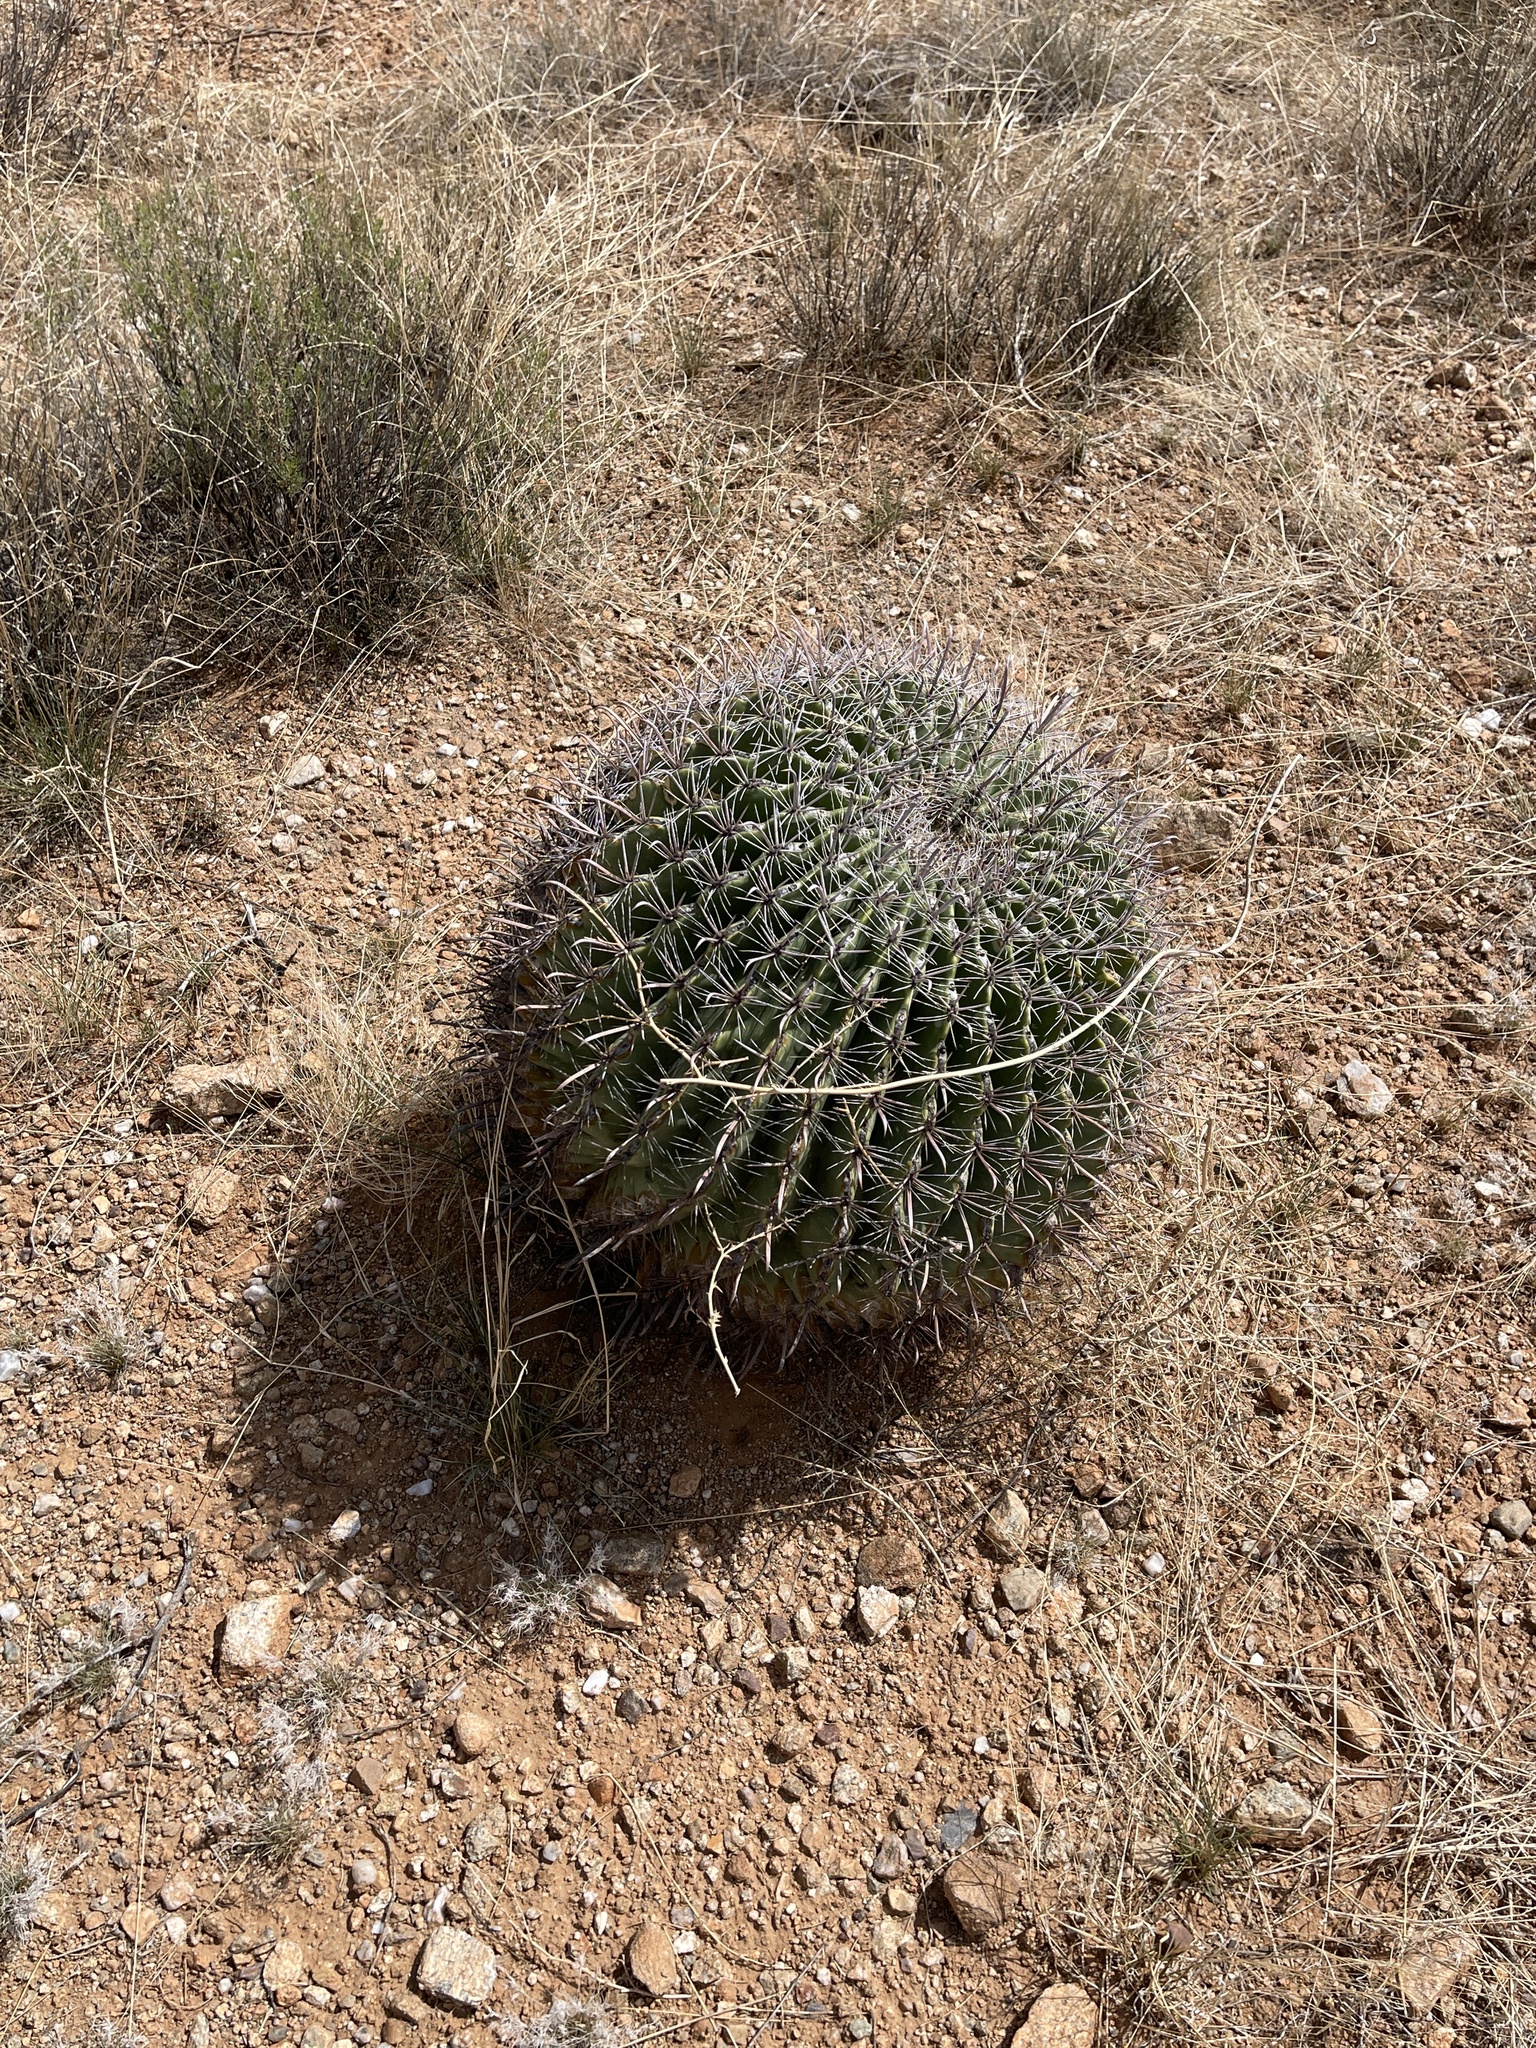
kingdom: Plantae
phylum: Tracheophyta
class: Magnoliopsida
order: Caryophyllales
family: Cactaceae
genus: Ferocactus
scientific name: Ferocactus wislizeni
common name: Candy barrel cactus
